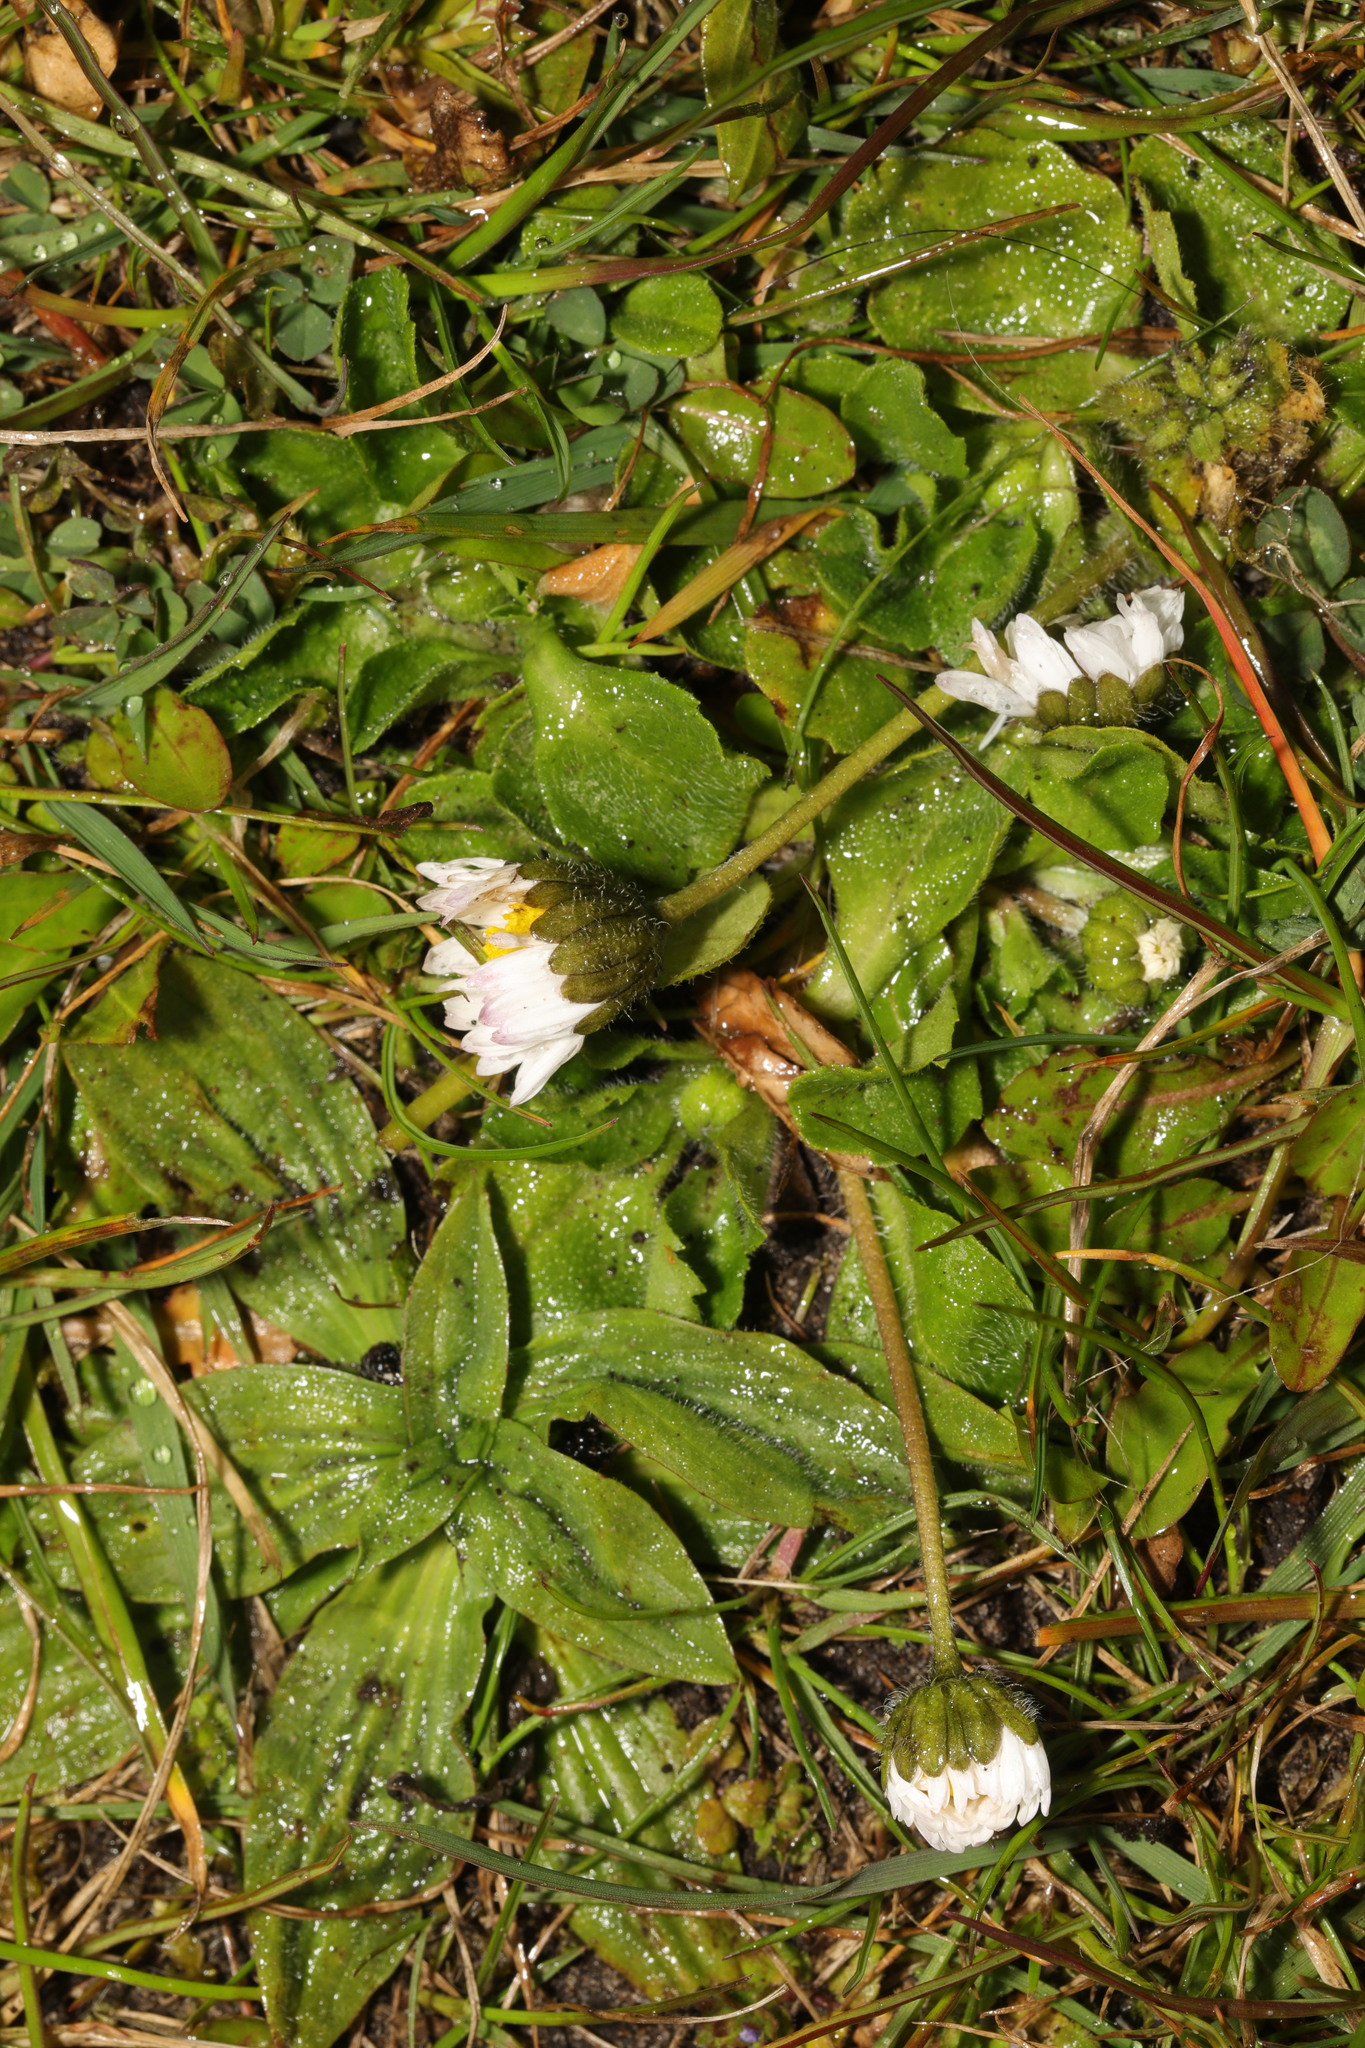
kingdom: Plantae
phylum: Tracheophyta
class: Magnoliopsida
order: Asterales
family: Asteraceae
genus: Bellis
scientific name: Bellis perennis
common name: Lawndaisy
